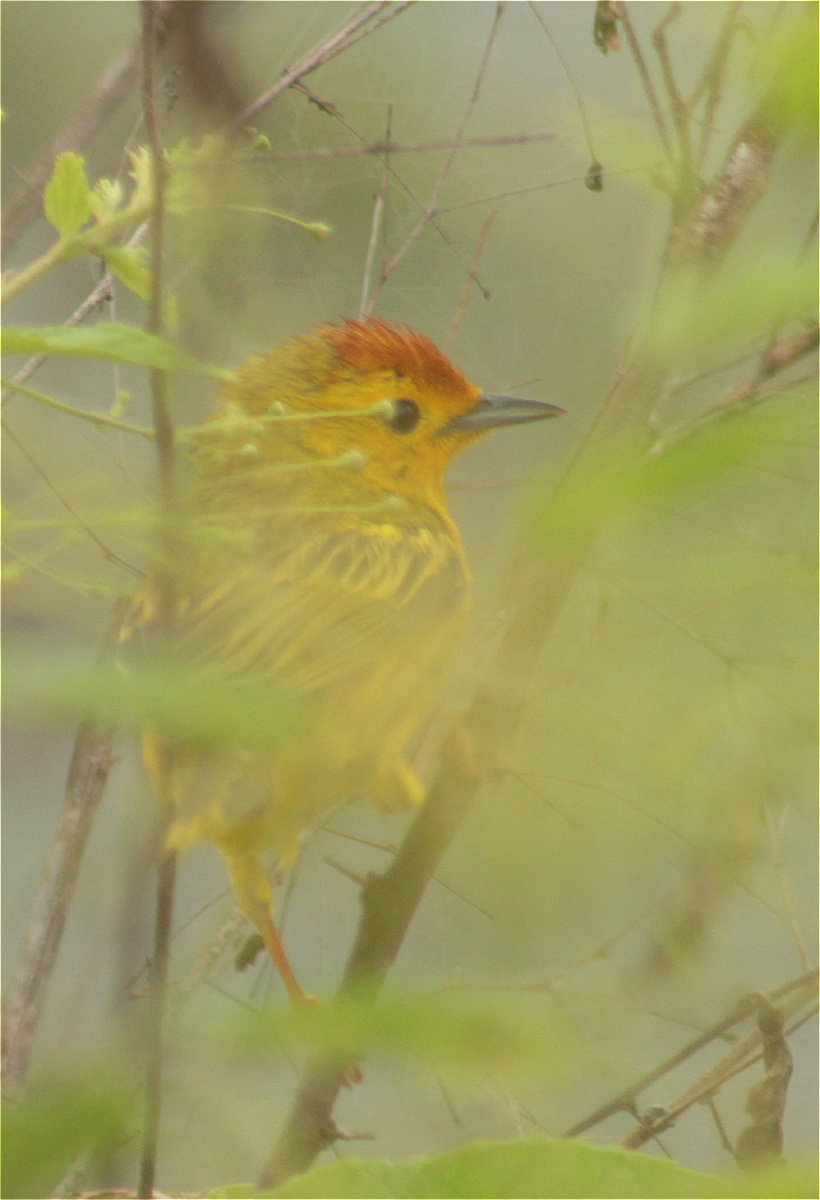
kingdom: Animalia
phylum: Chordata
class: Aves
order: Passeriformes
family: Parulidae
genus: Setophaga
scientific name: Setophaga petechia
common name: Yellow warbler
